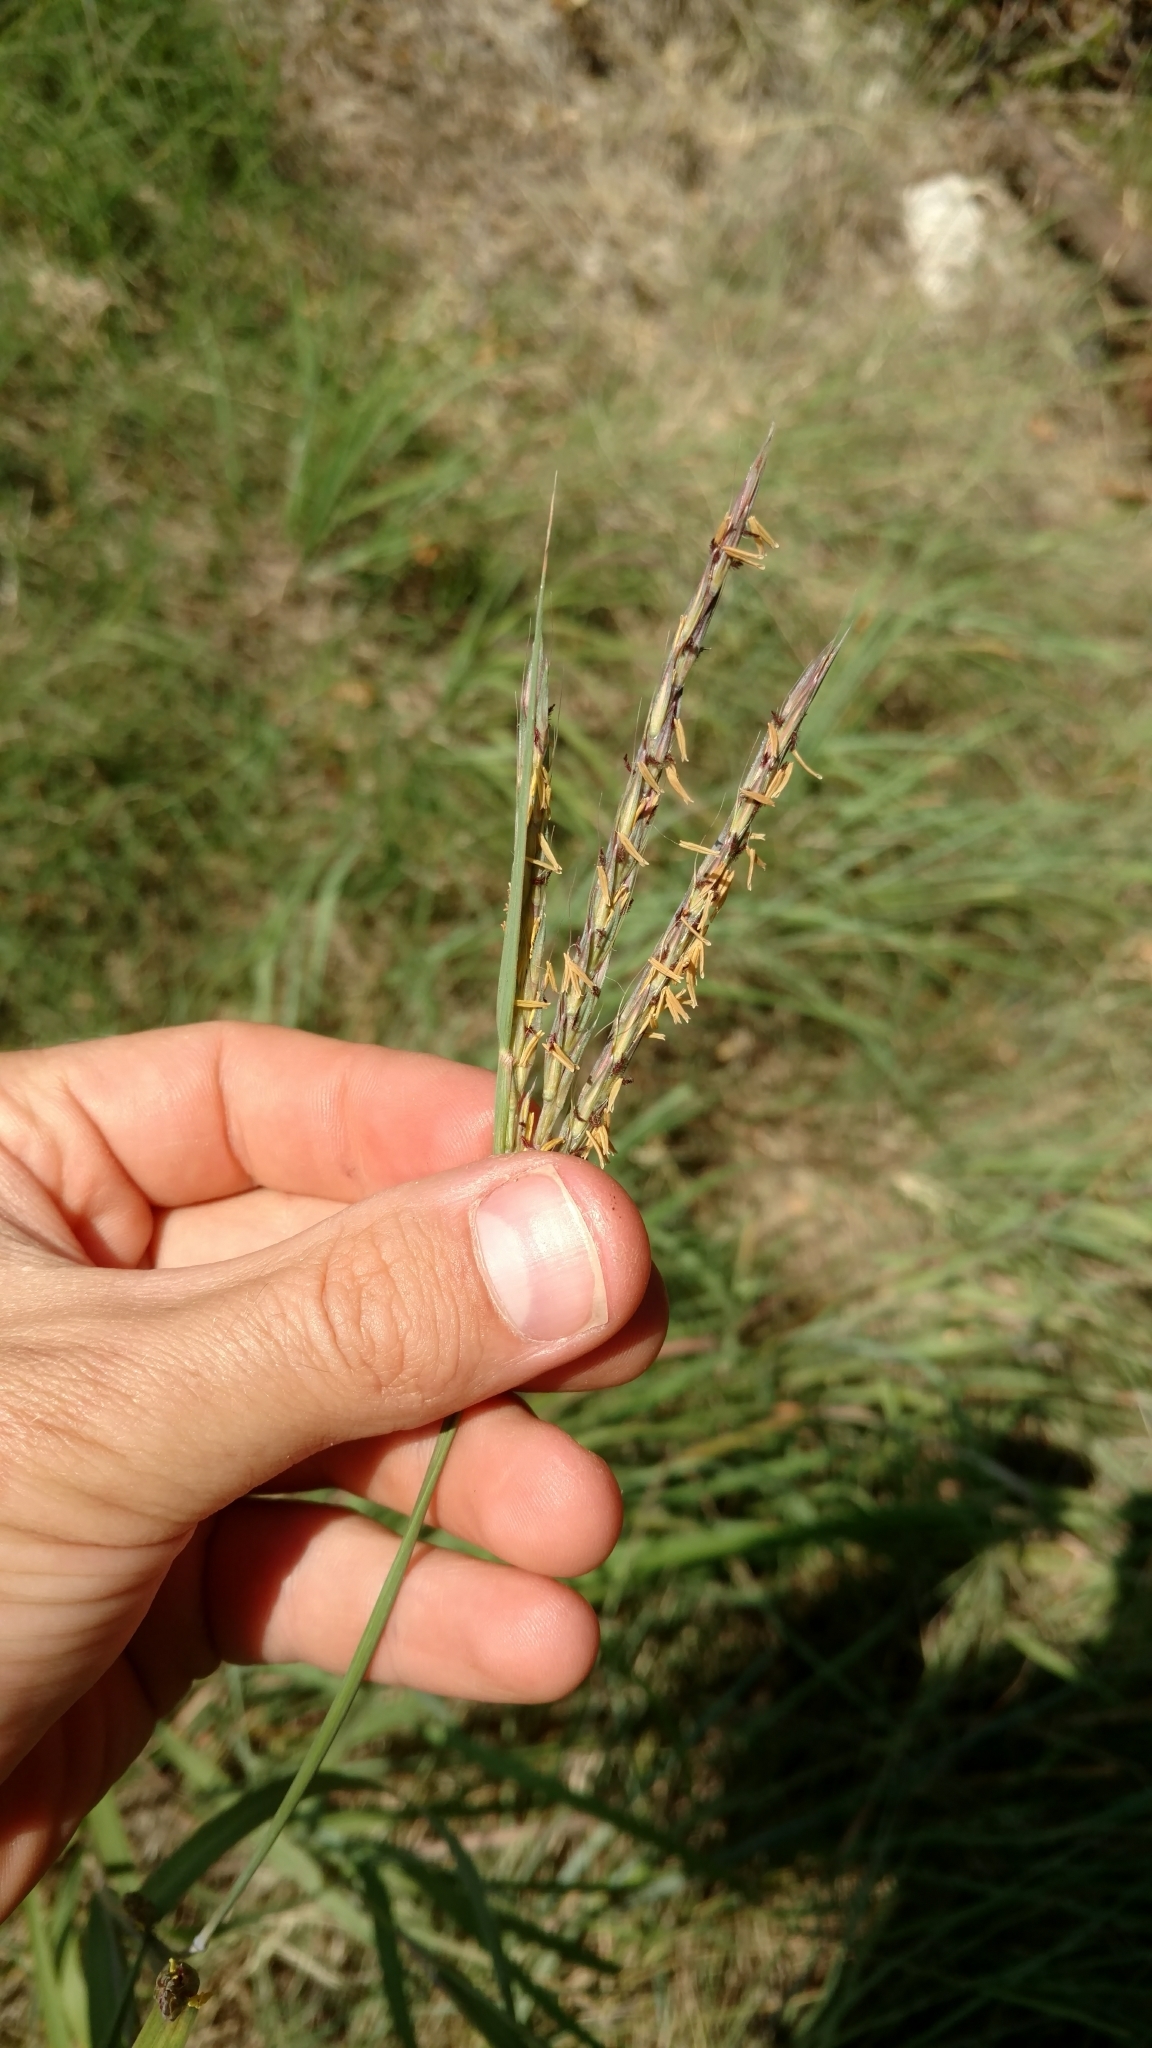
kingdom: Plantae
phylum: Tracheophyta
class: Liliopsida
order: Poales
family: Poaceae
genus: Andropogon
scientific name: Andropogon gerardi
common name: Big bluestem
